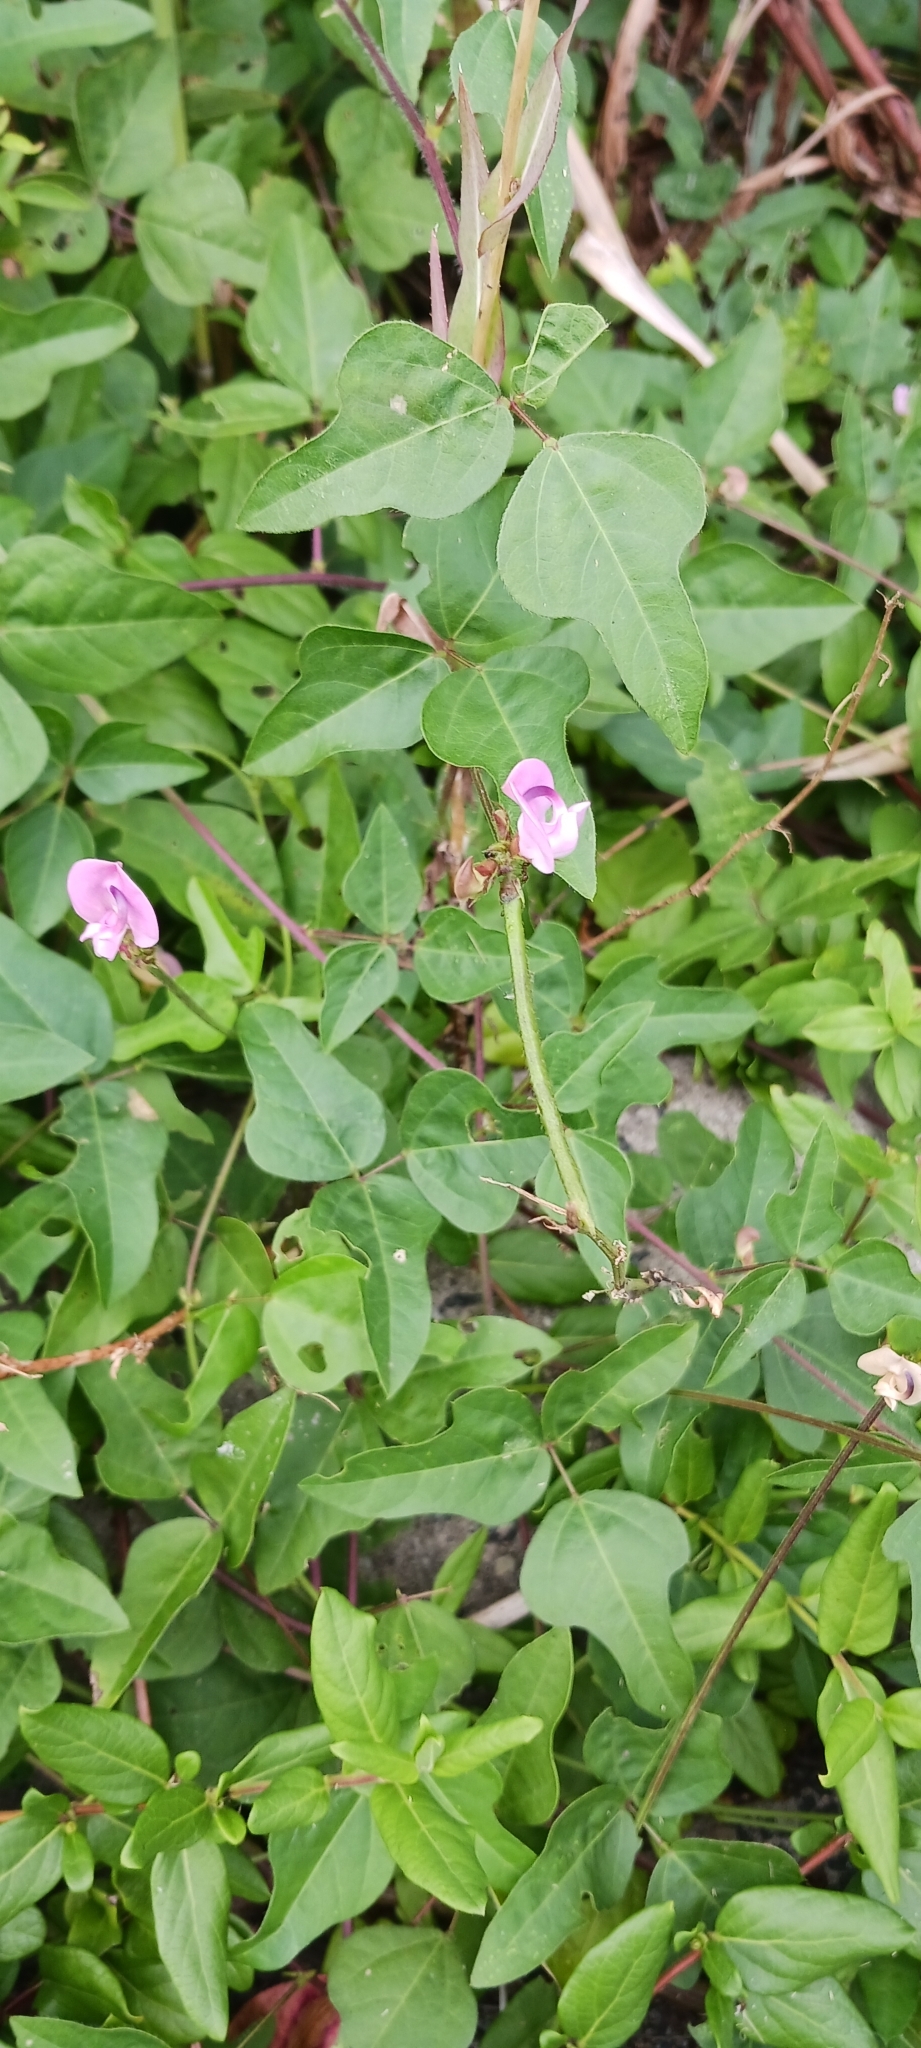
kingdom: Plantae
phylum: Tracheophyta
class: Magnoliopsida
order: Fabales
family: Fabaceae
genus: Strophostyles
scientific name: Strophostyles helvola
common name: Trailing wild bean
